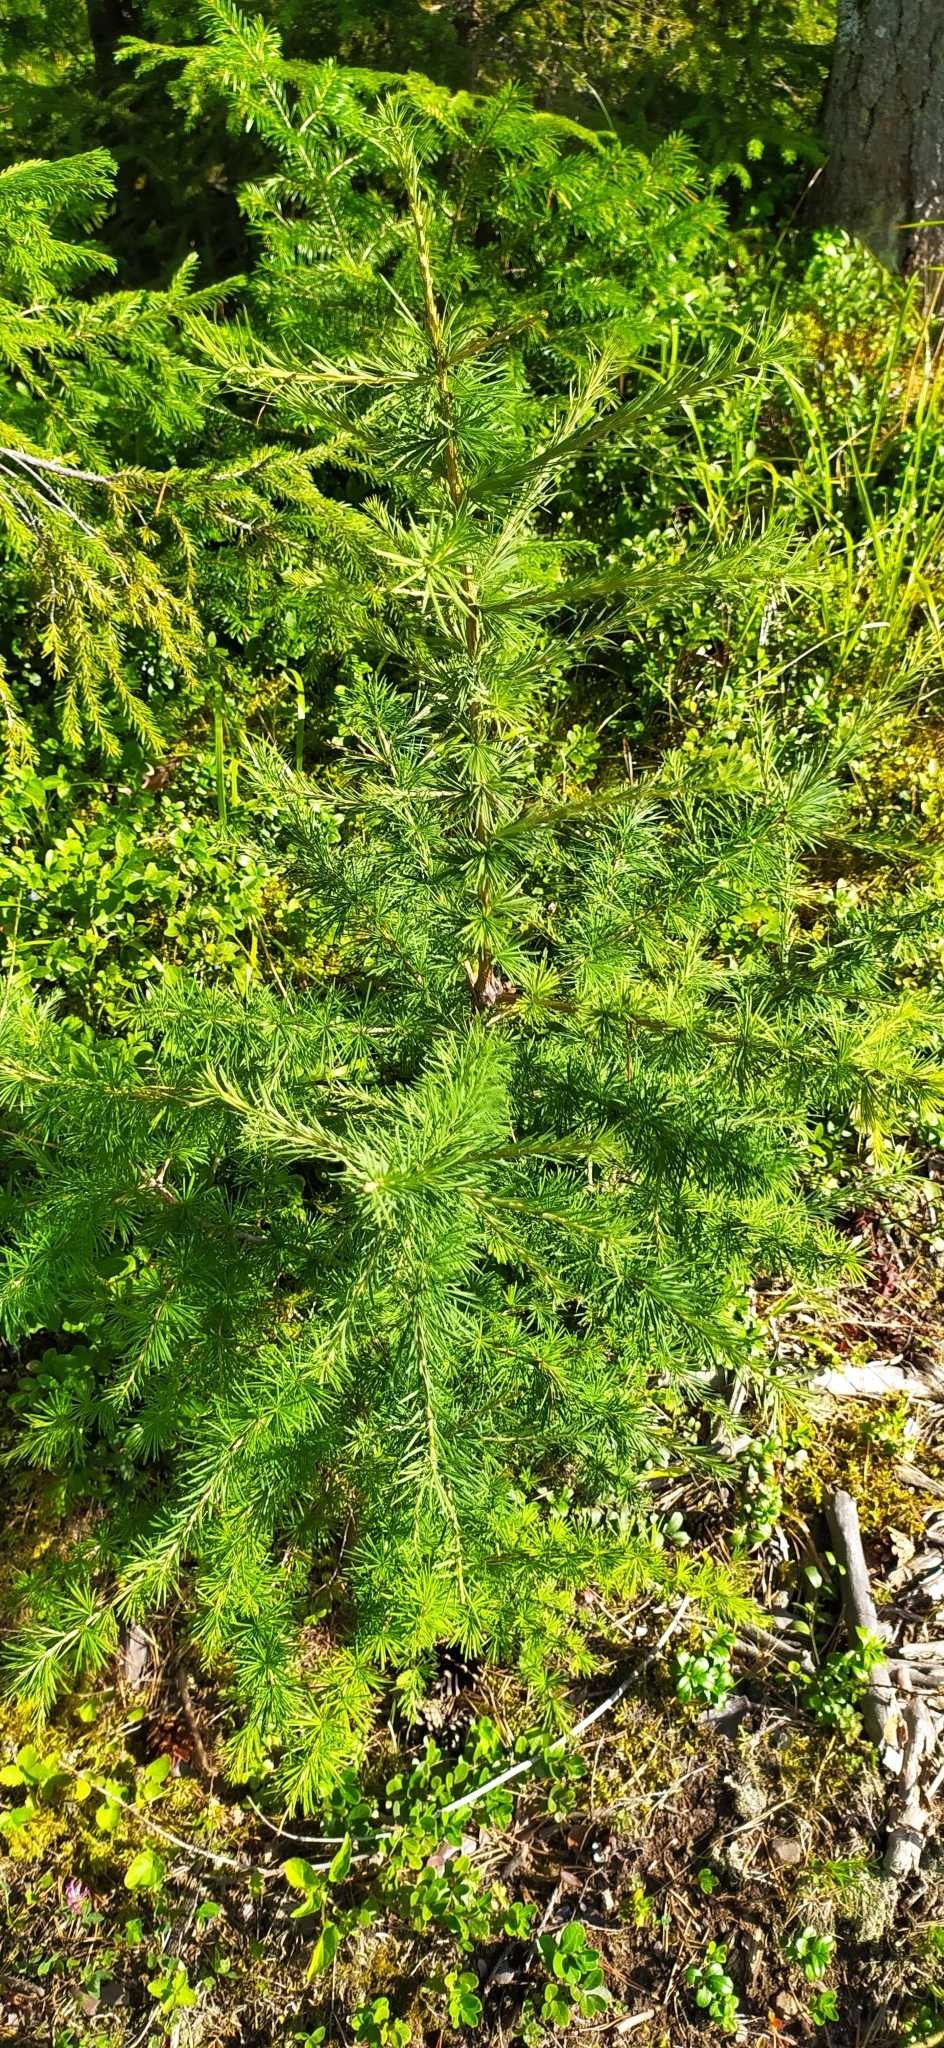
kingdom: Plantae
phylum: Tracheophyta
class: Pinopsida
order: Pinales
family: Pinaceae
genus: Larix
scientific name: Larix sibirica
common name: Siberian larch
